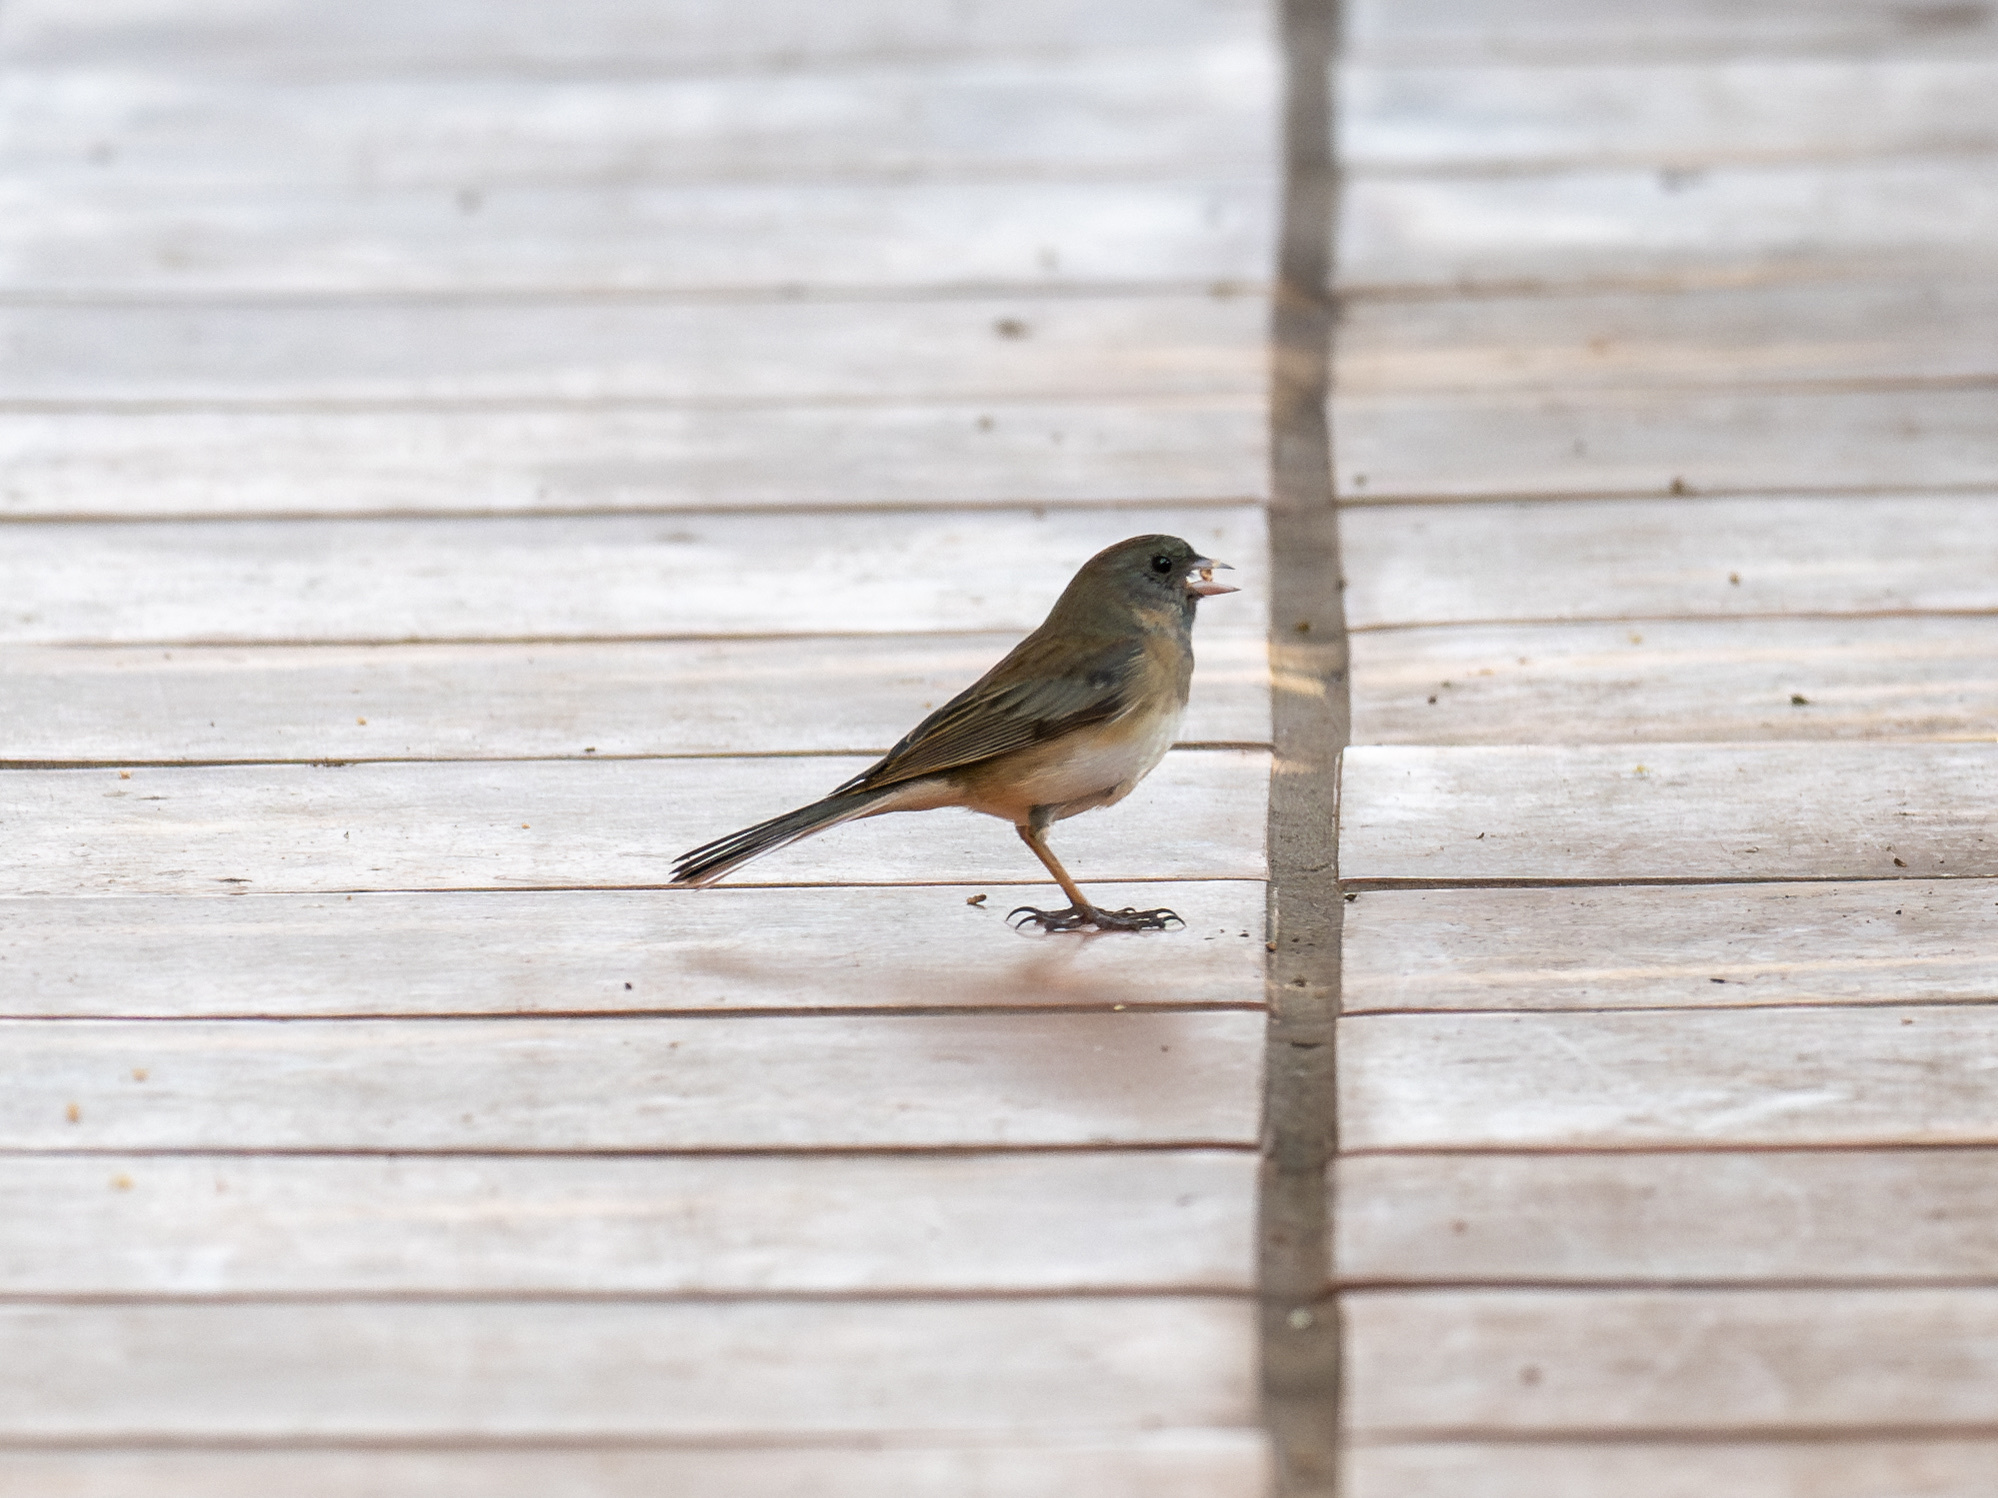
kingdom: Animalia
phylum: Chordata
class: Aves
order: Passeriformes
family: Passerellidae
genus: Junco
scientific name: Junco hyemalis
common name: Dark-eyed junco
